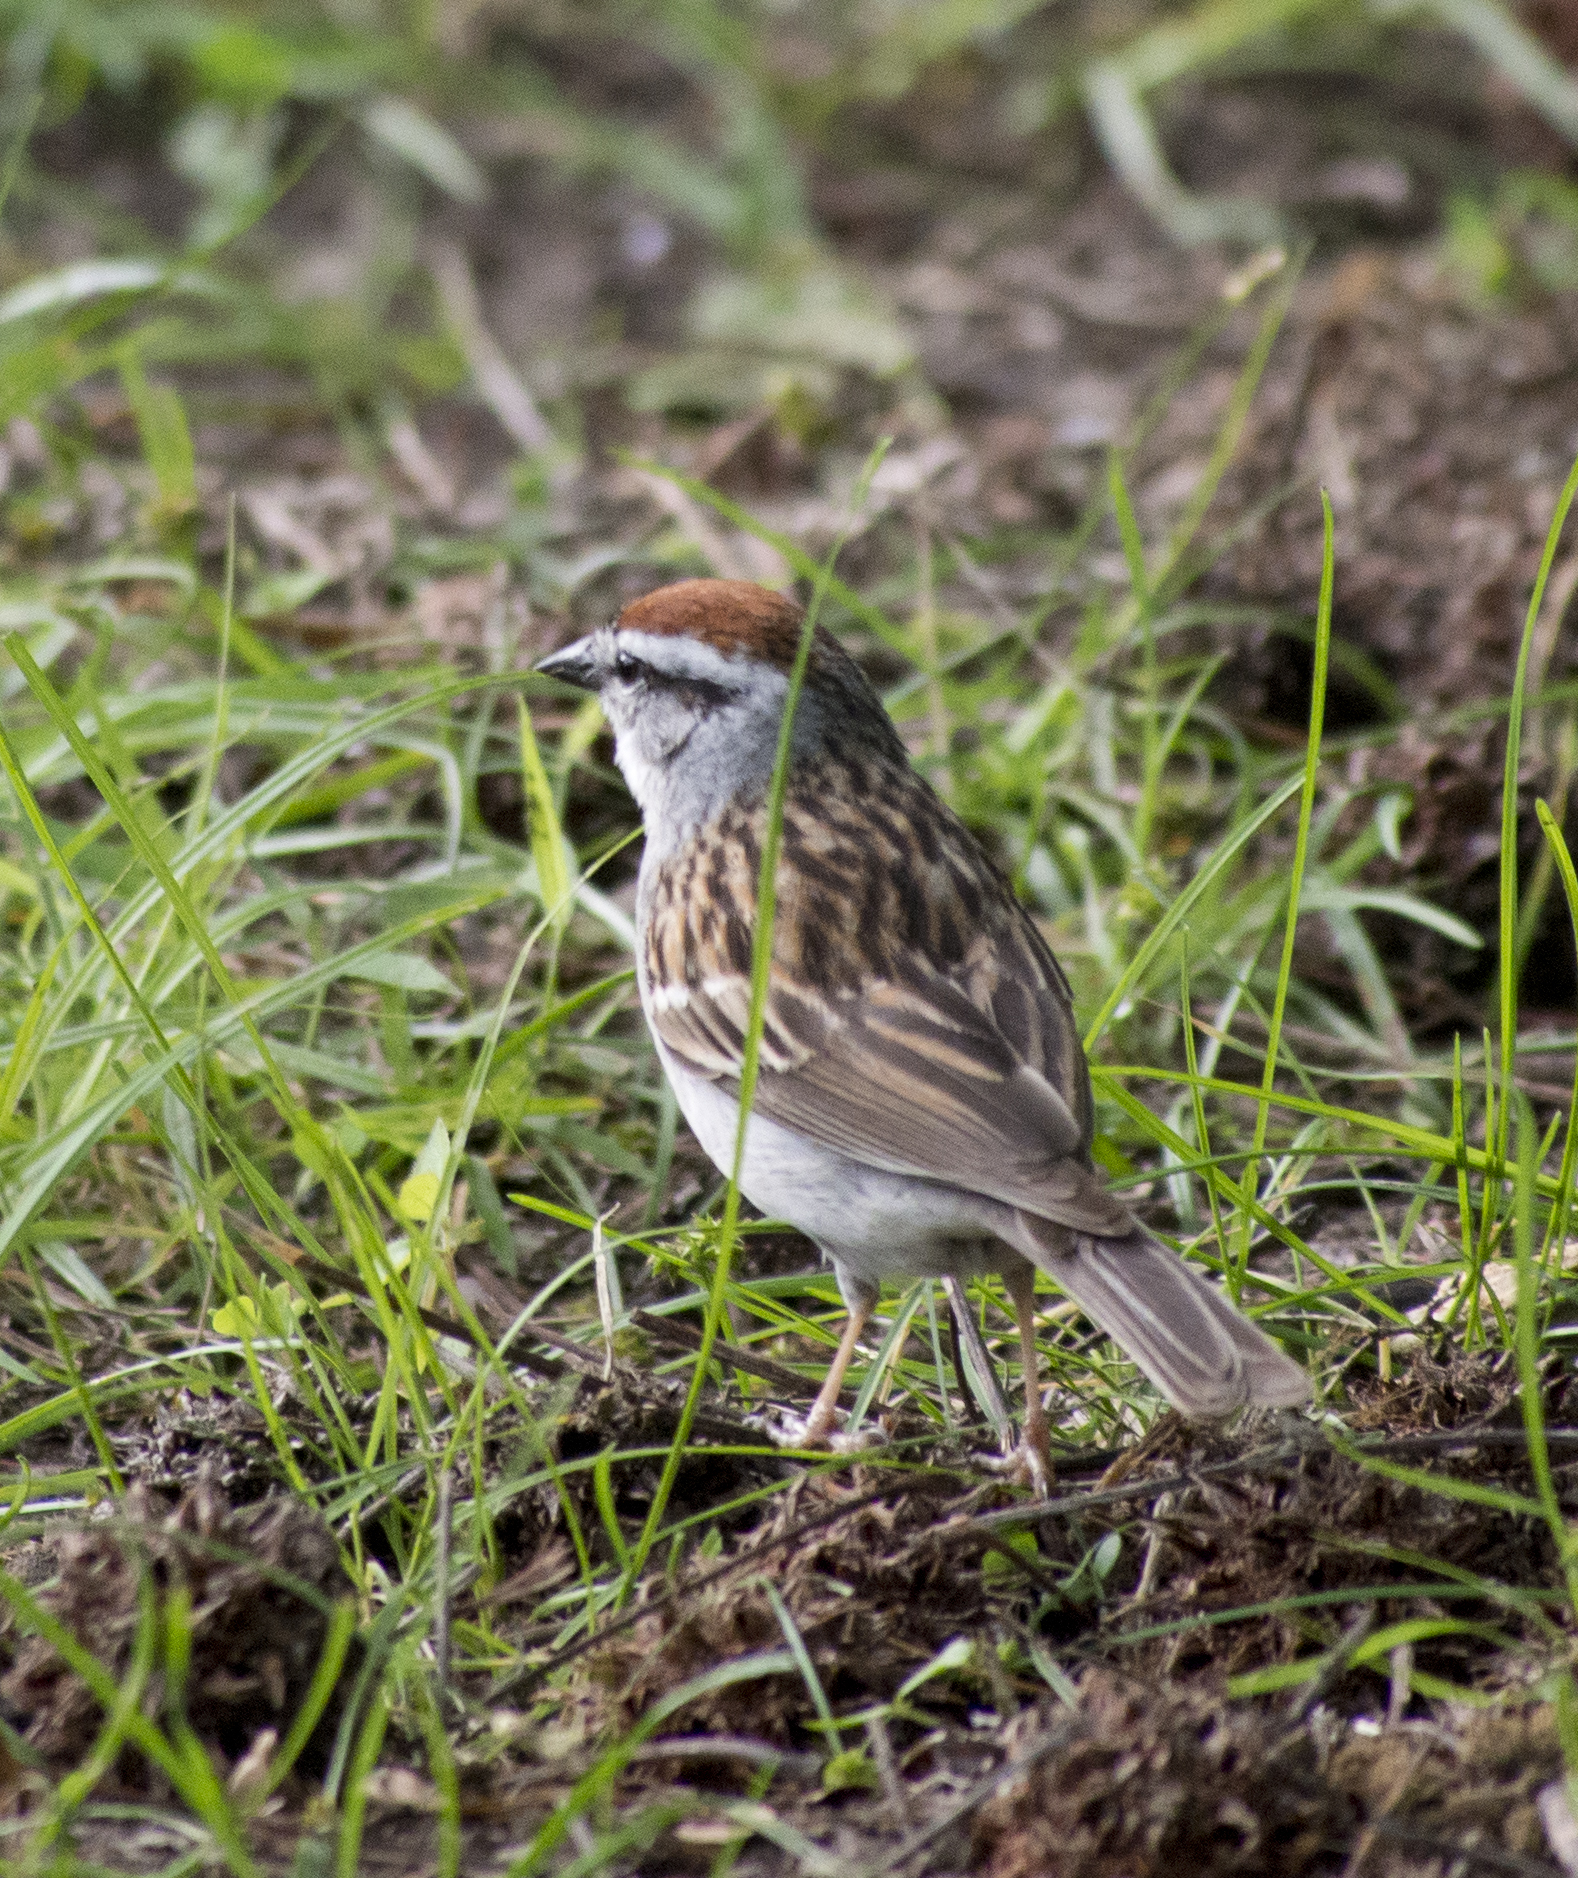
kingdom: Animalia
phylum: Chordata
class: Aves
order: Passeriformes
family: Passerellidae
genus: Spizella
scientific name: Spizella passerina
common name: Chipping sparrow
